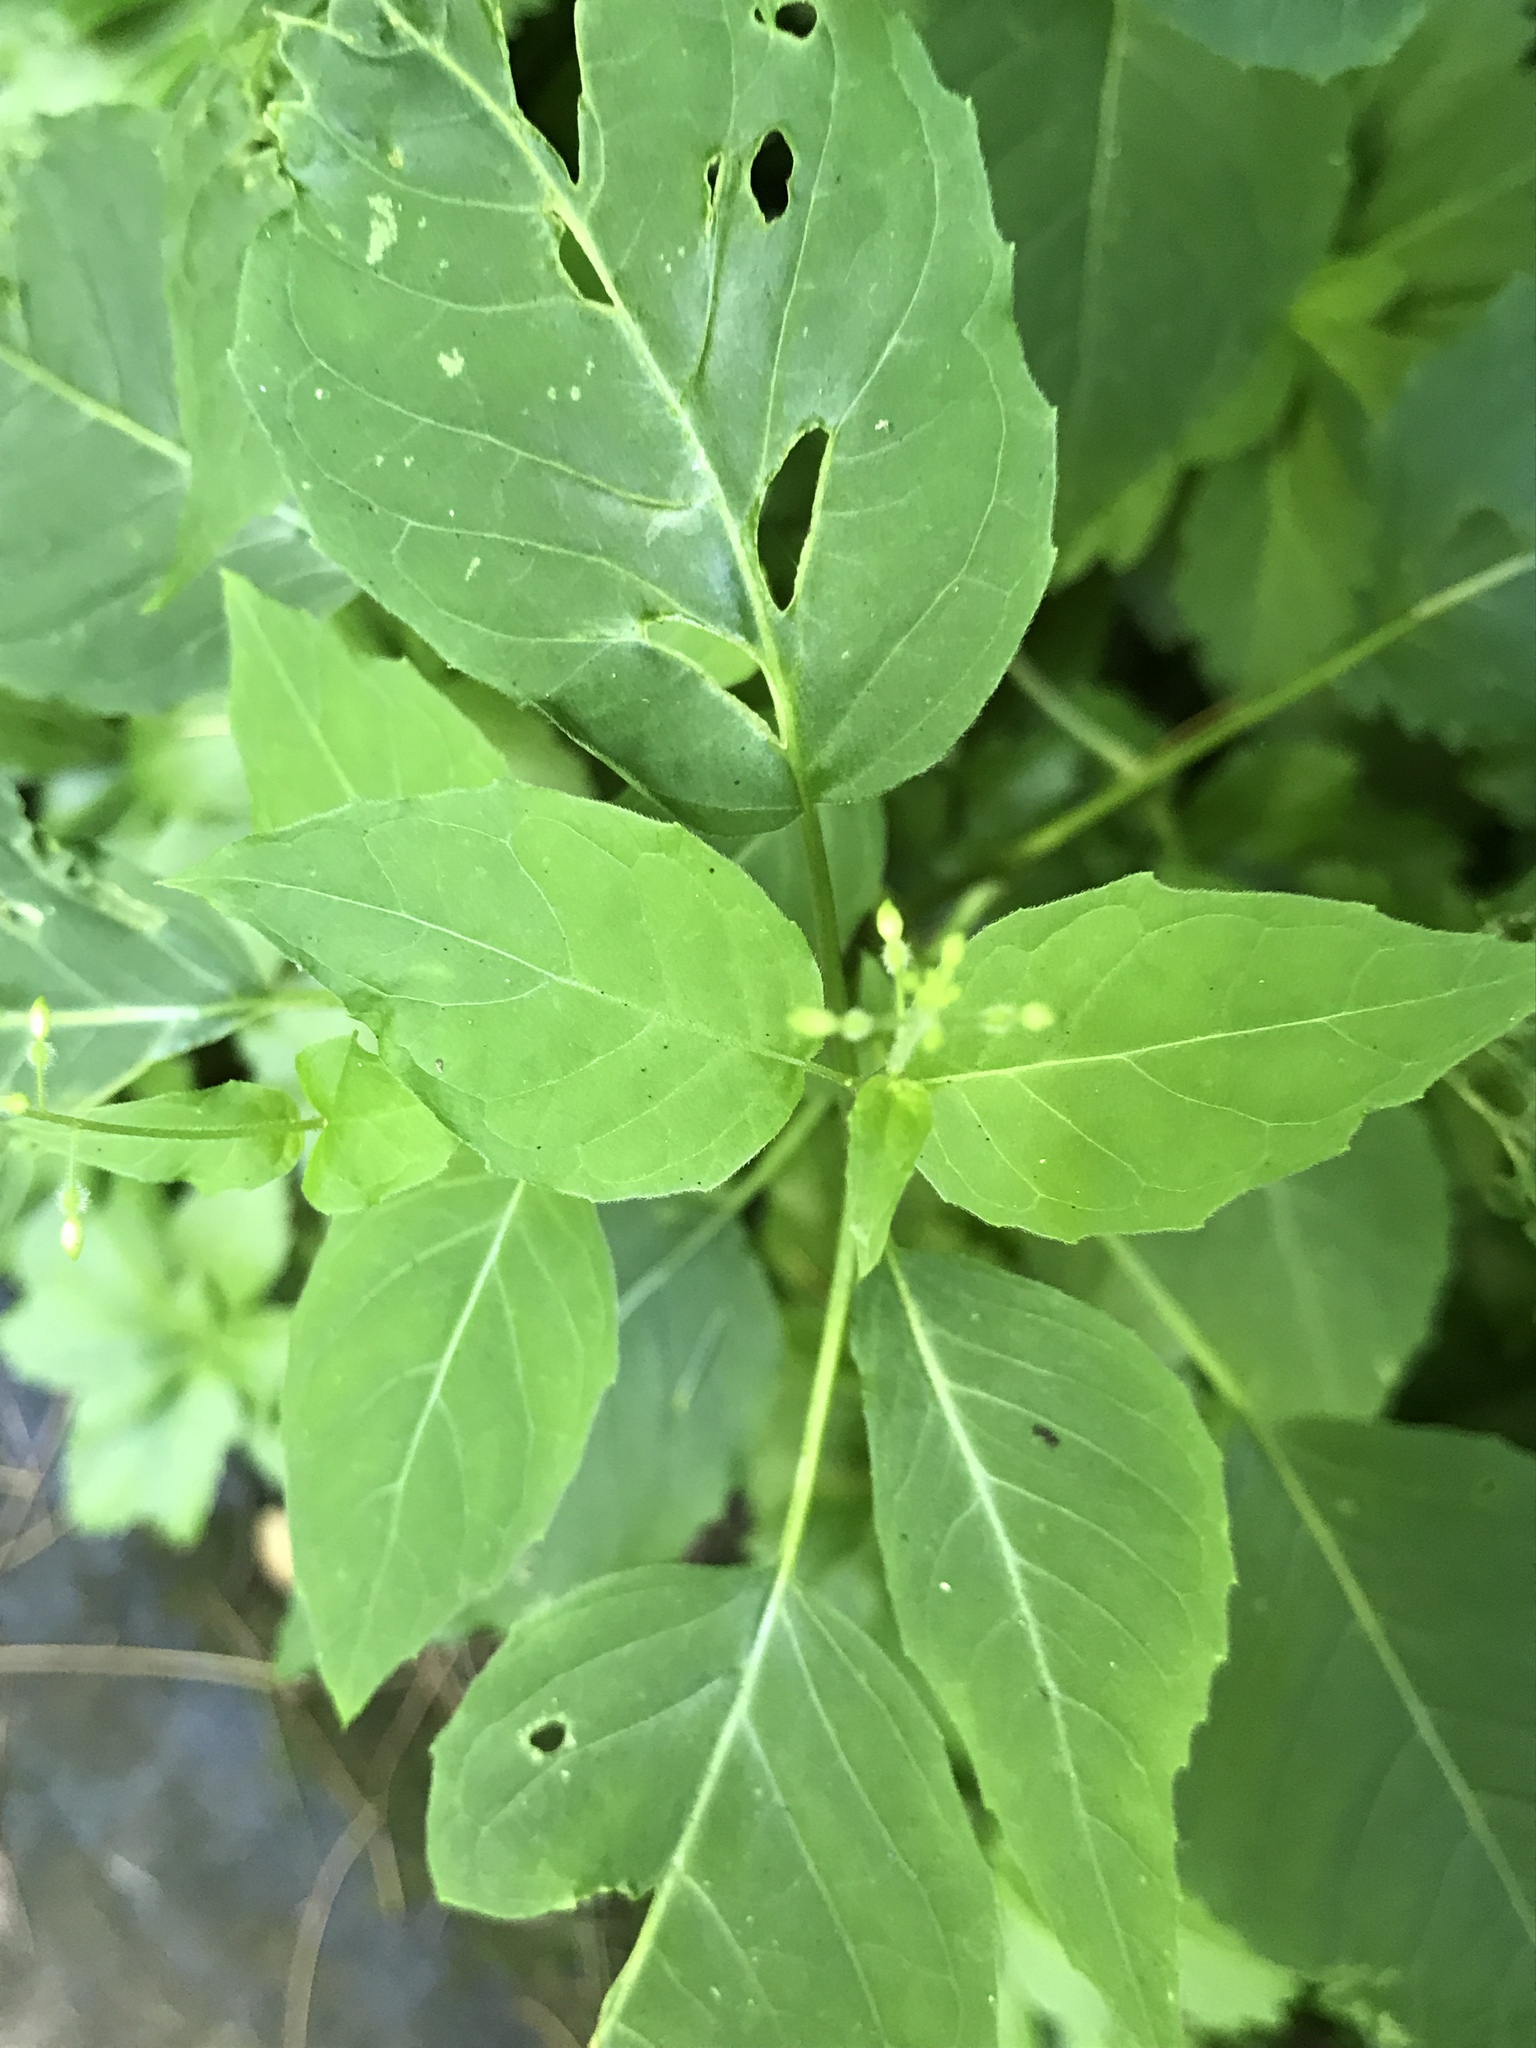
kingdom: Plantae
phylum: Tracheophyta
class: Magnoliopsida
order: Myrtales
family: Onagraceae
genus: Circaea
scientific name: Circaea canadensis
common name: Broad-leaved enchanter's nightshade
